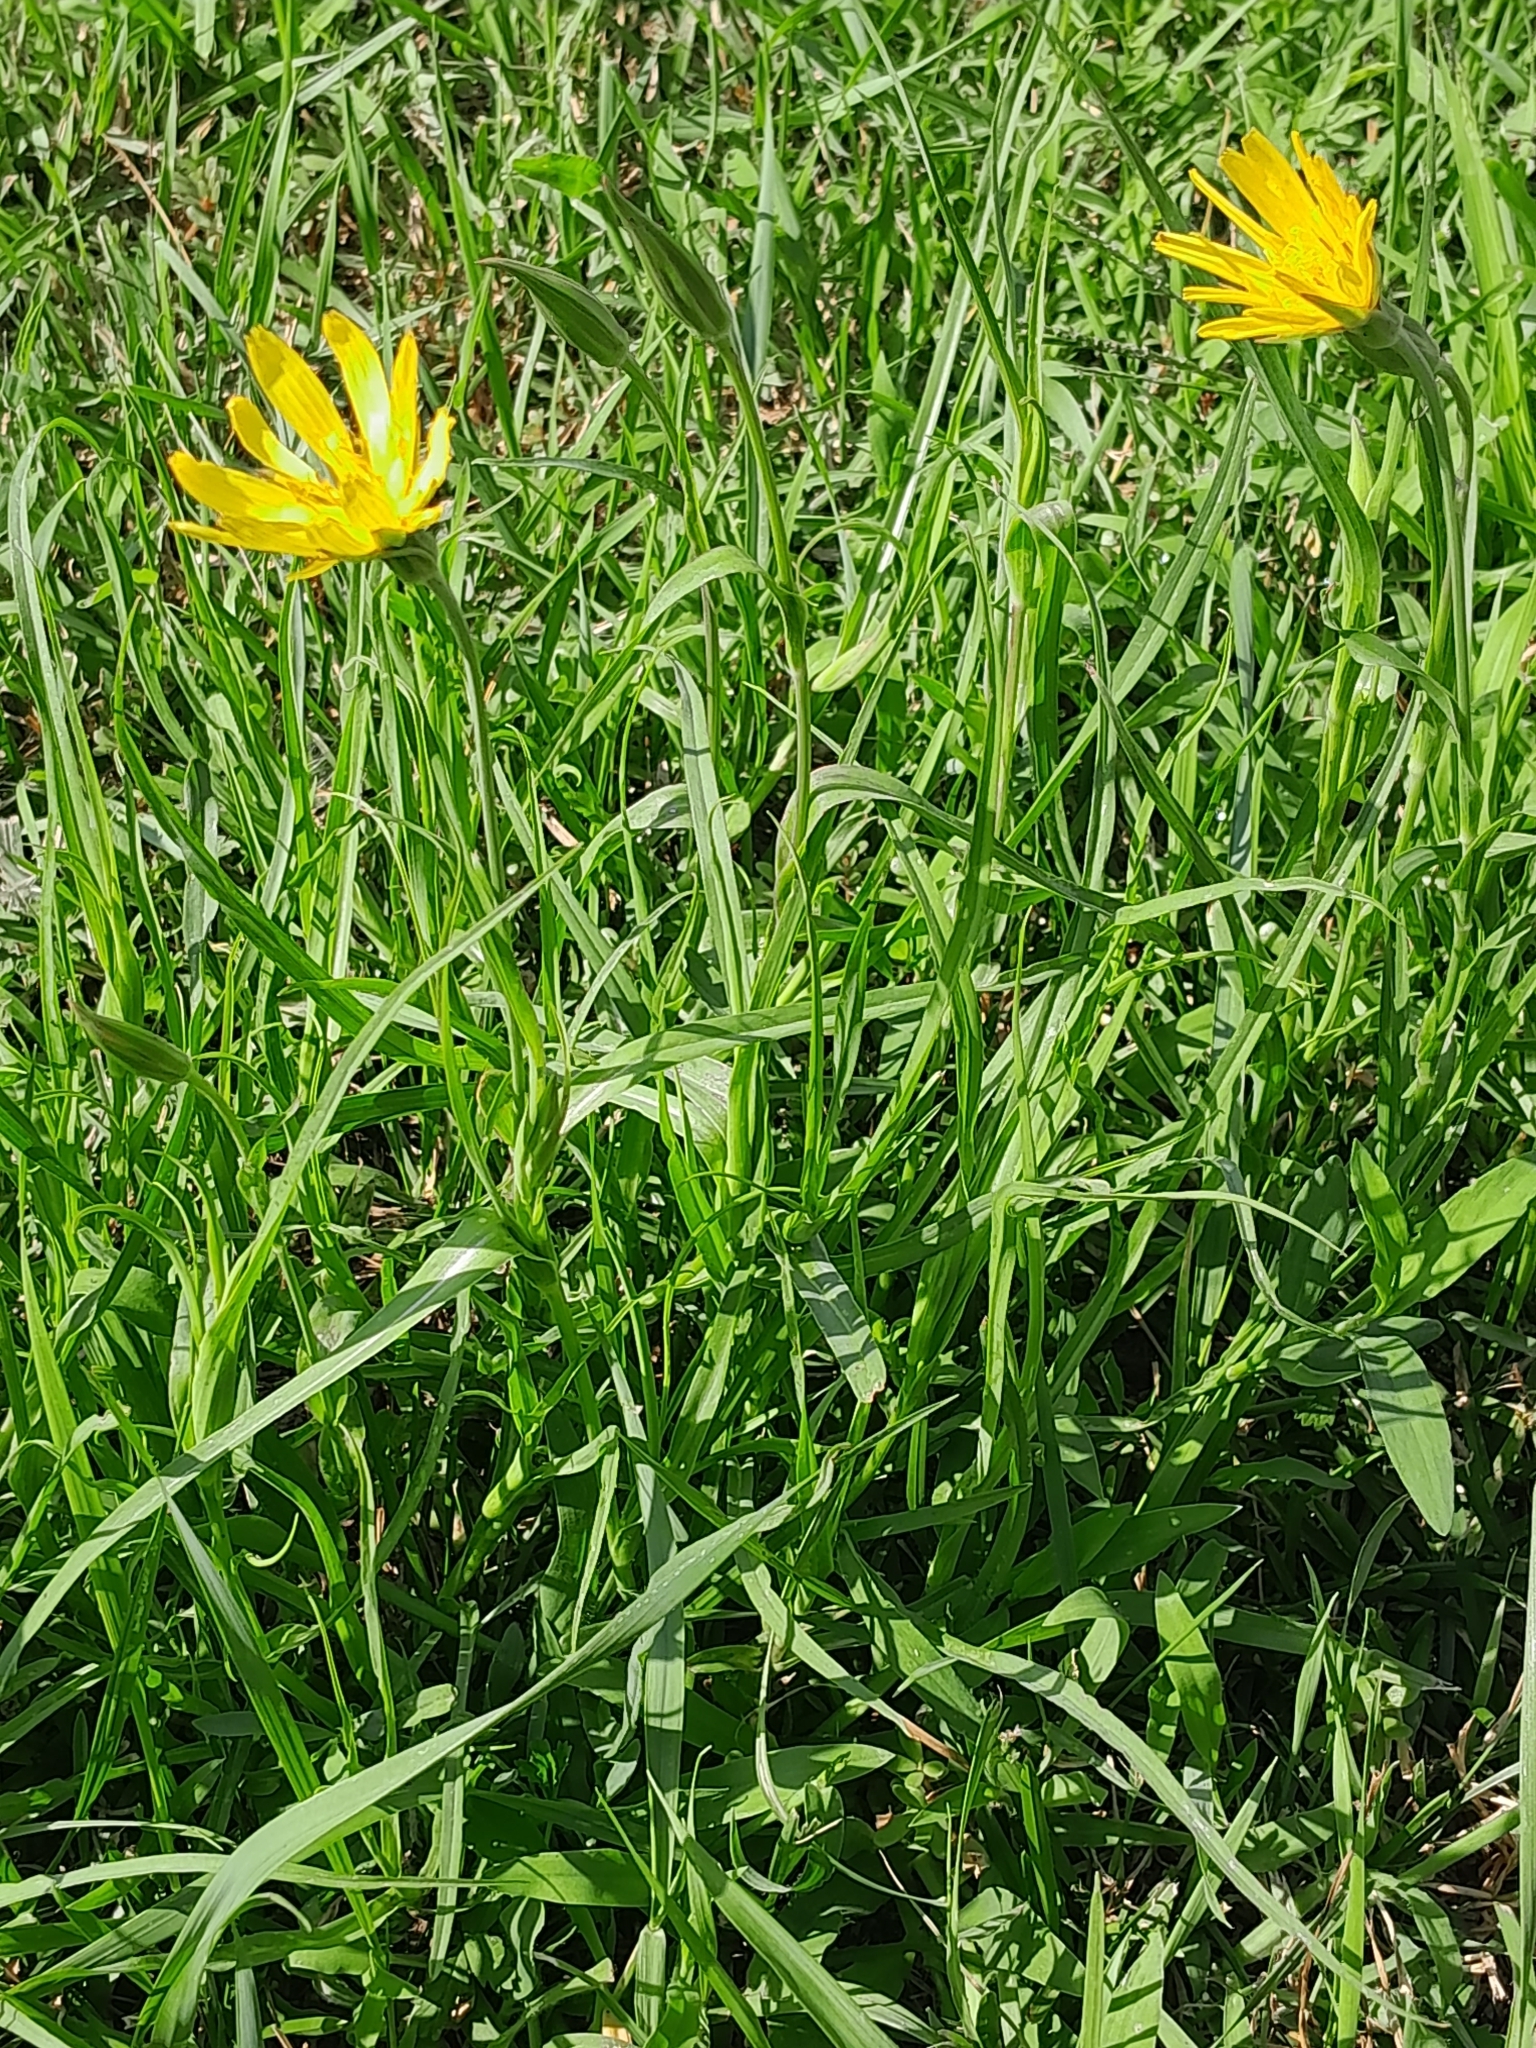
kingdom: Plantae
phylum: Tracheophyta
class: Magnoliopsida
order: Asterales
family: Asteraceae
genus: Tragopogon
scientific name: Tragopogon orientalis
